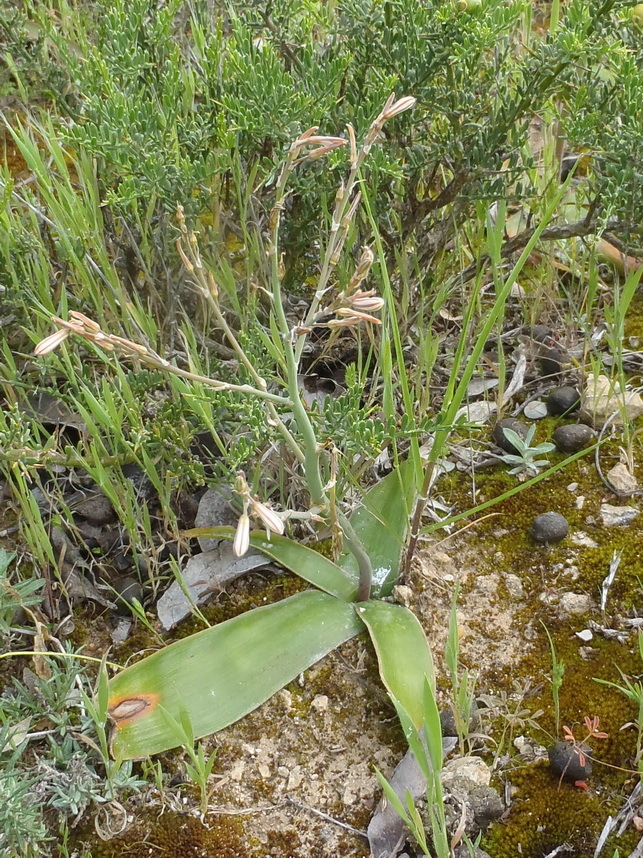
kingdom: Plantae
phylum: Tracheophyta
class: Liliopsida
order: Asparagales
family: Asphodelaceae
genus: Trachyandra
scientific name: Trachyandra muricata
